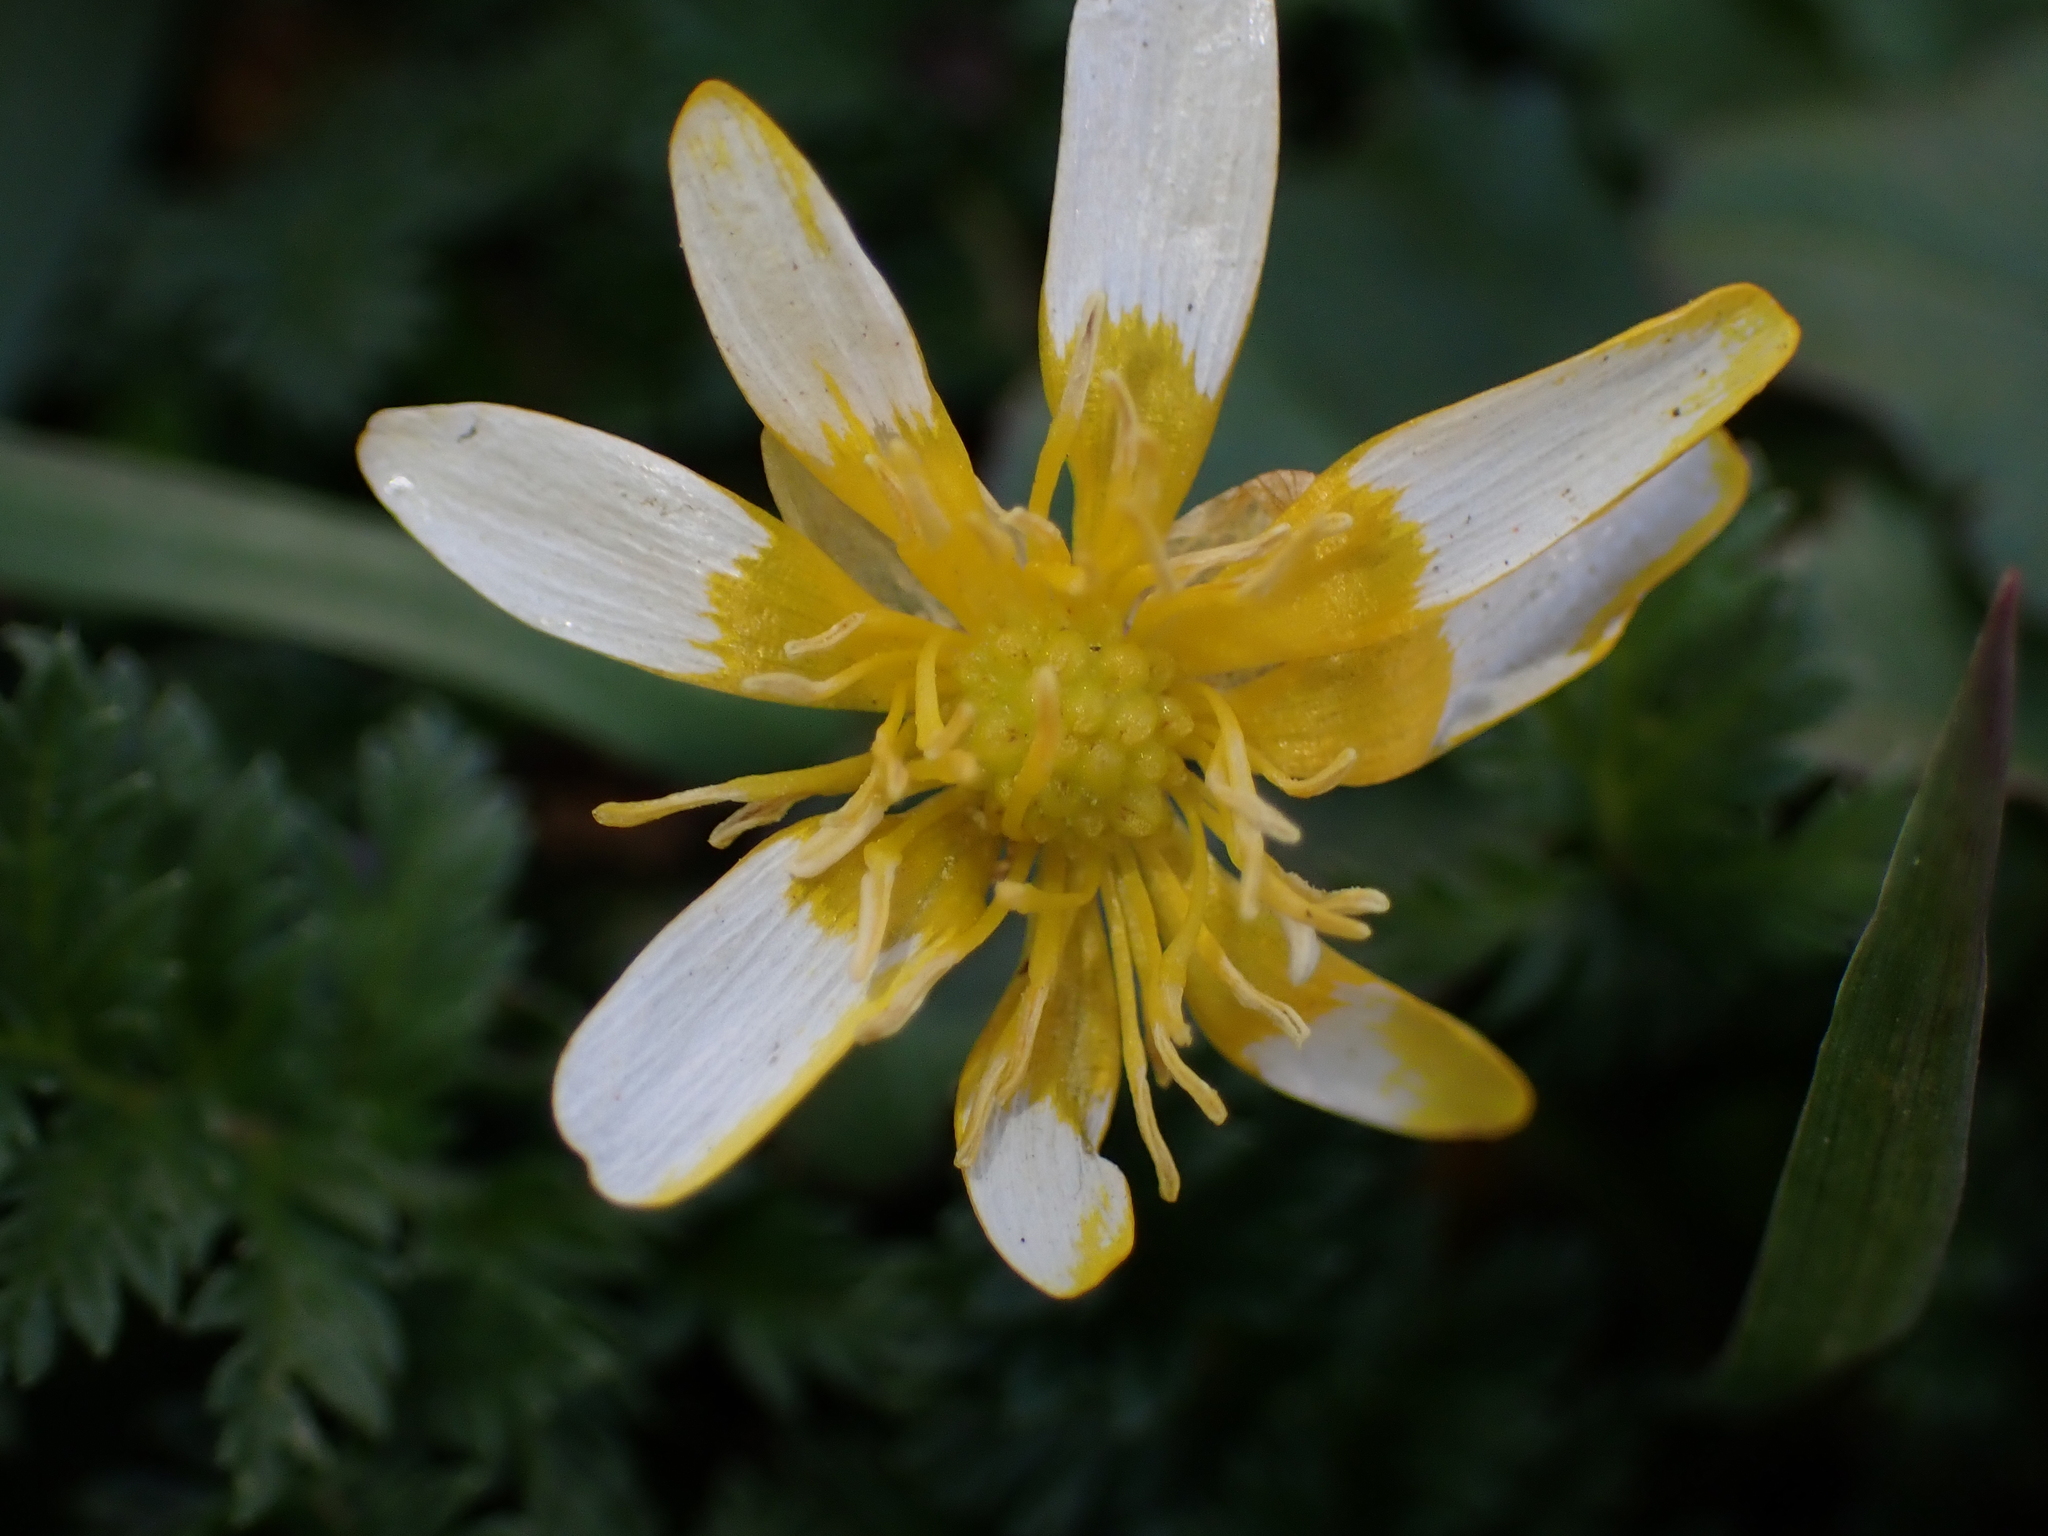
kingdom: Plantae
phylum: Tracheophyta
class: Magnoliopsida
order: Ranunculales
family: Ranunculaceae
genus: Ficaria
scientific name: Ficaria verna
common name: Lesser celandine
